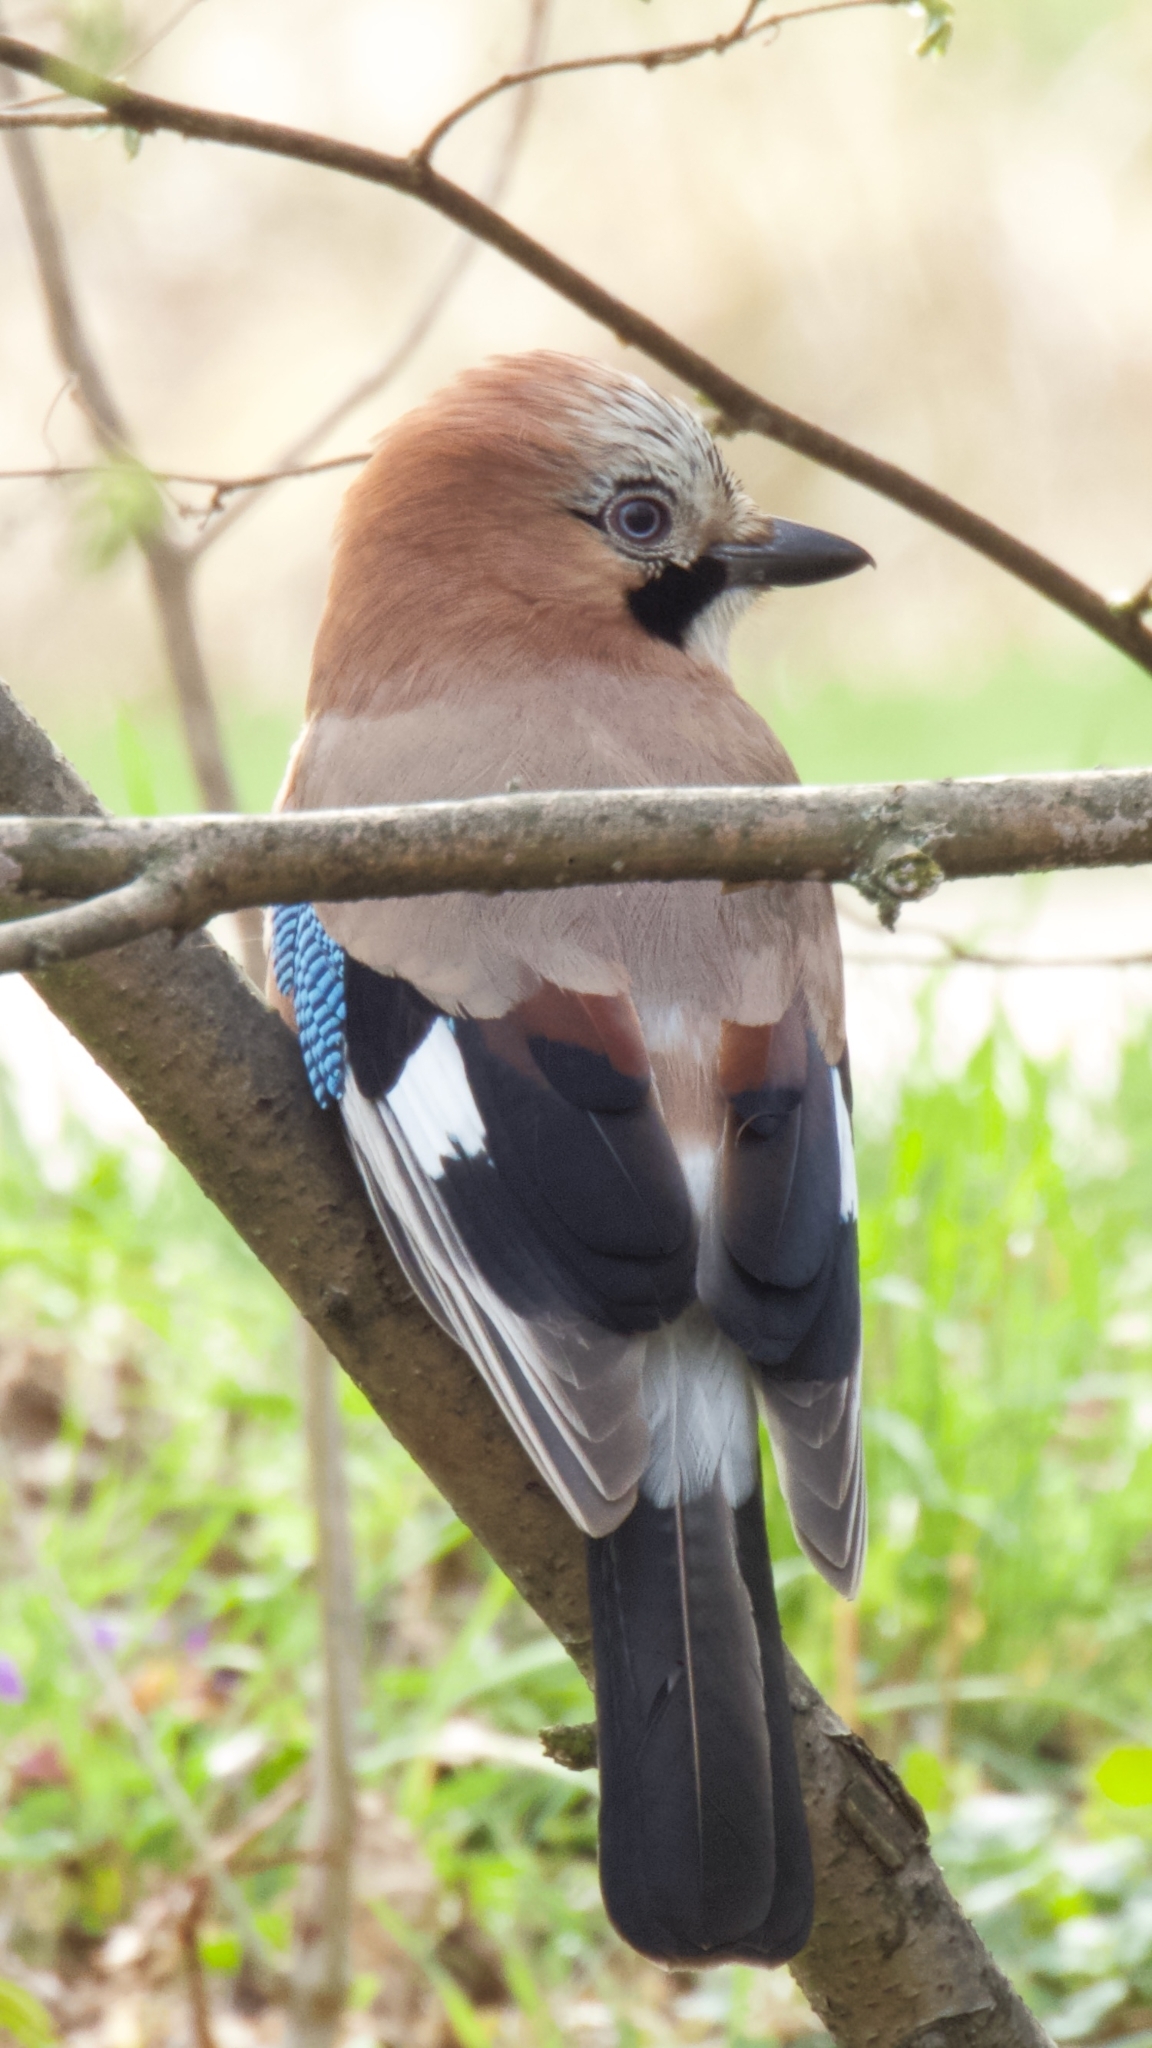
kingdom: Animalia
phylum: Chordata
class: Aves
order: Passeriformes
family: Corvidae
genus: Garrulus
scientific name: Garrulus glandarius
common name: Eurasian jay
